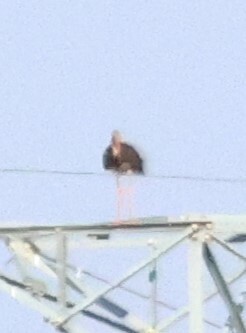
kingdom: Animalia
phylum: Chordata
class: Aves
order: Ciconiiformes
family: Ciconiidae
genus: Ciconia
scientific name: Ciconia nigra
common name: Black stork
